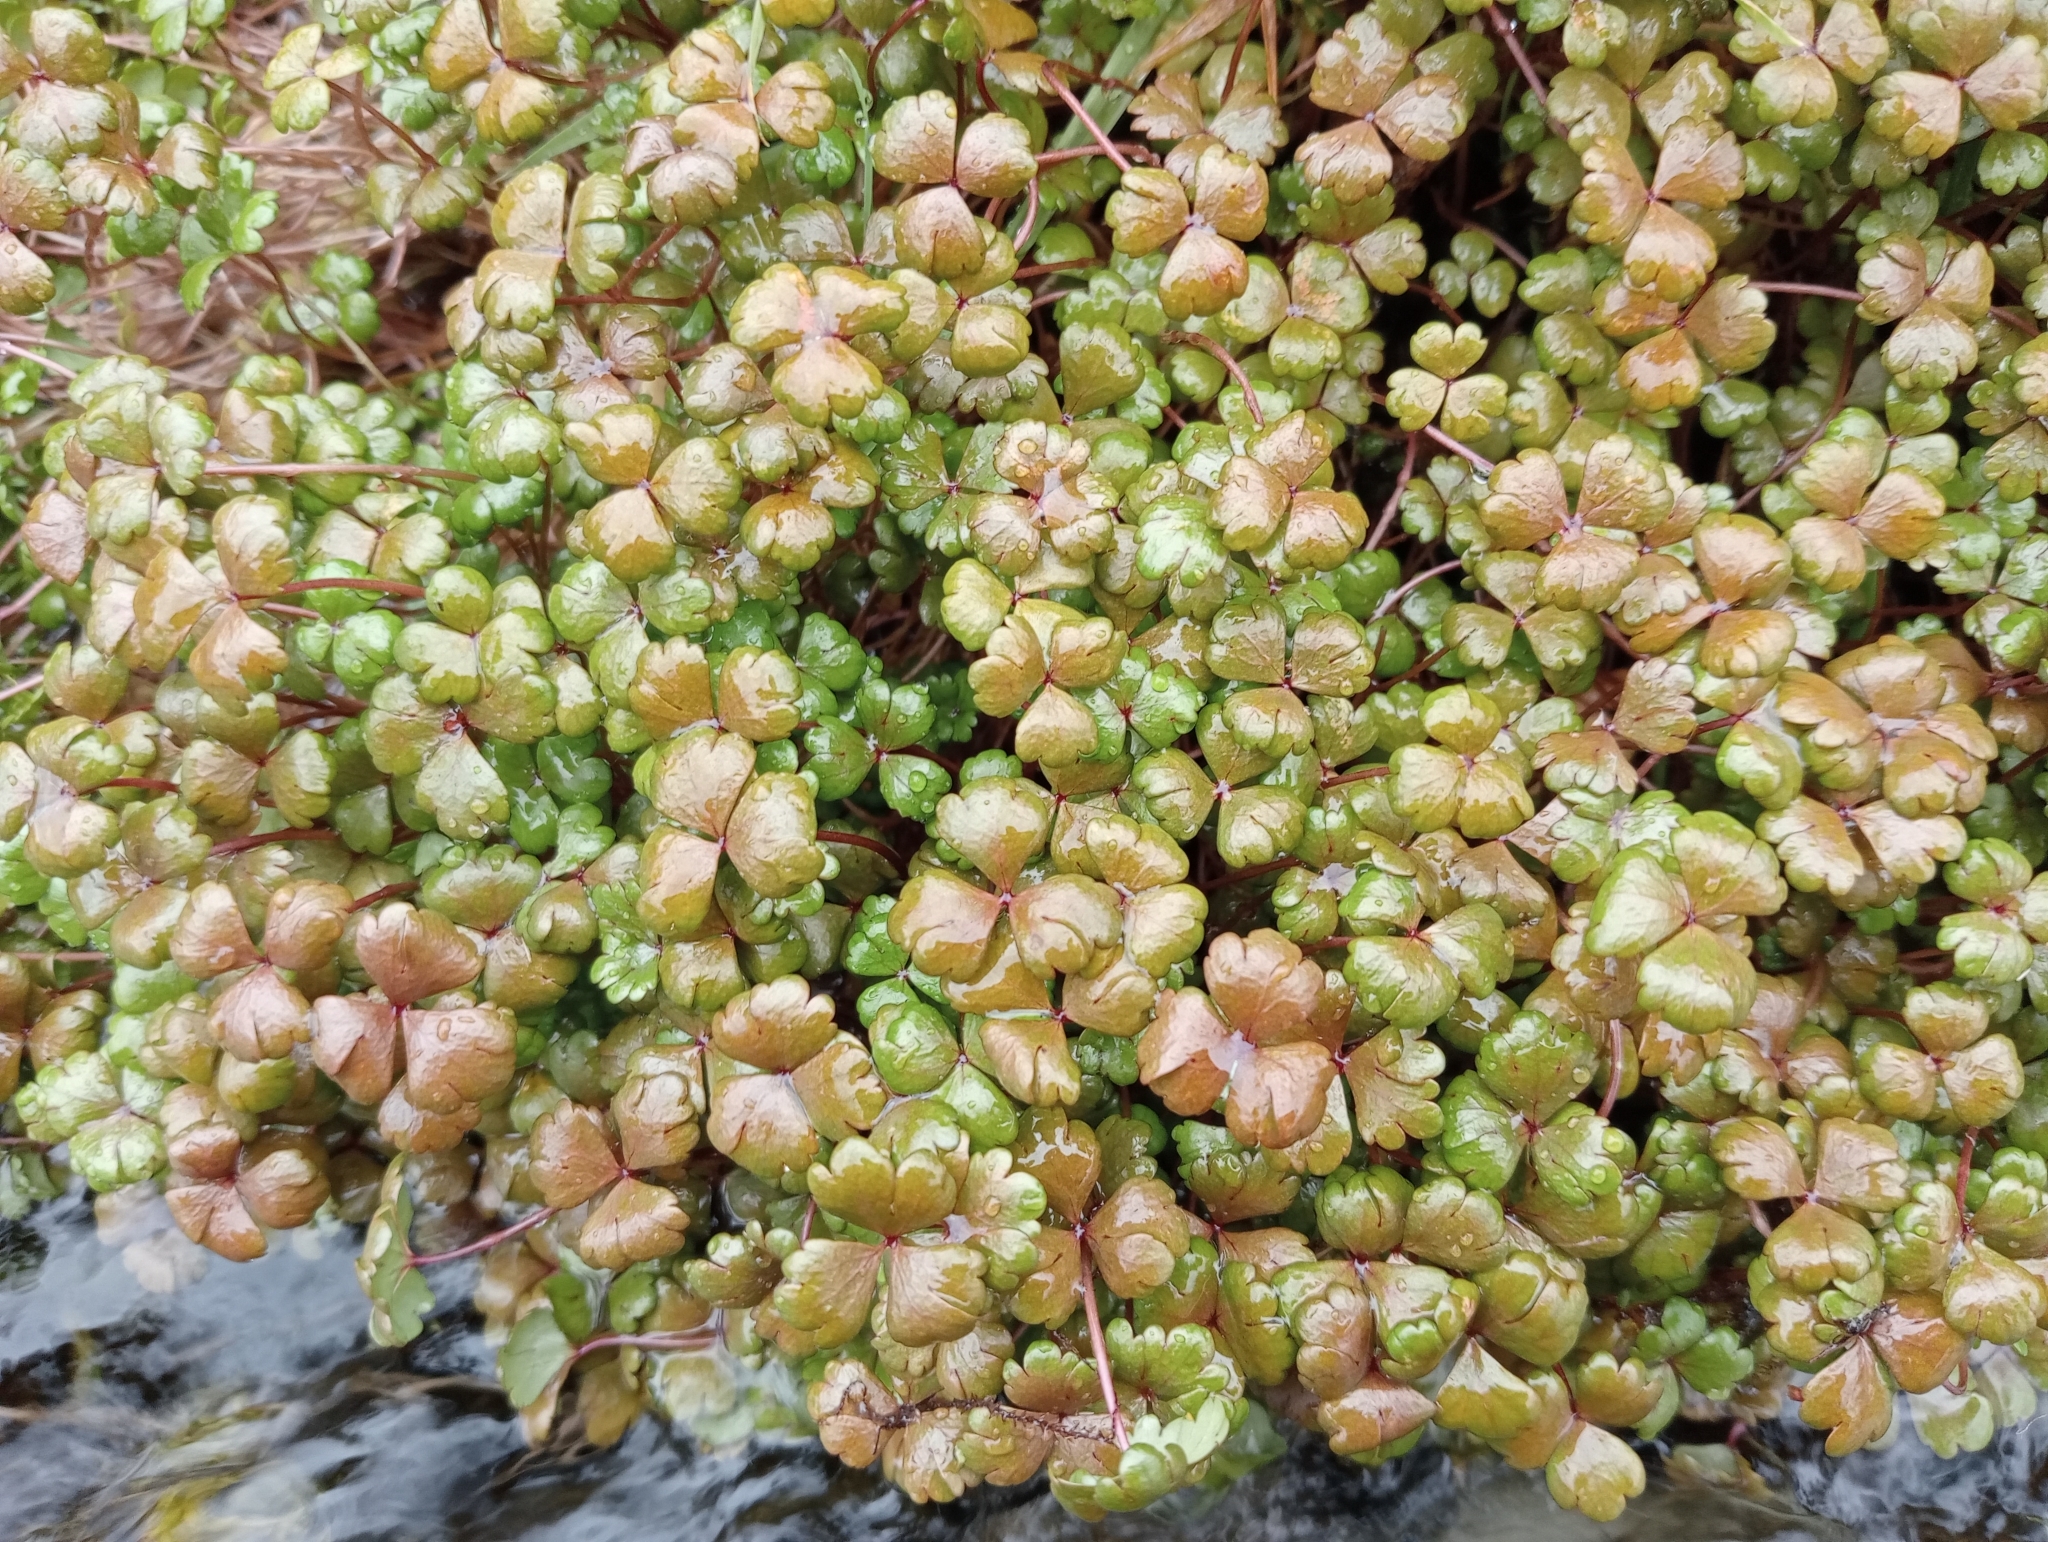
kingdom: Plantae
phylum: Tracheophyta
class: Magnoliopsida
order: Apiales
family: Araliaceae
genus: Hydrocotyle
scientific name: Hydrocotyle sulcata
